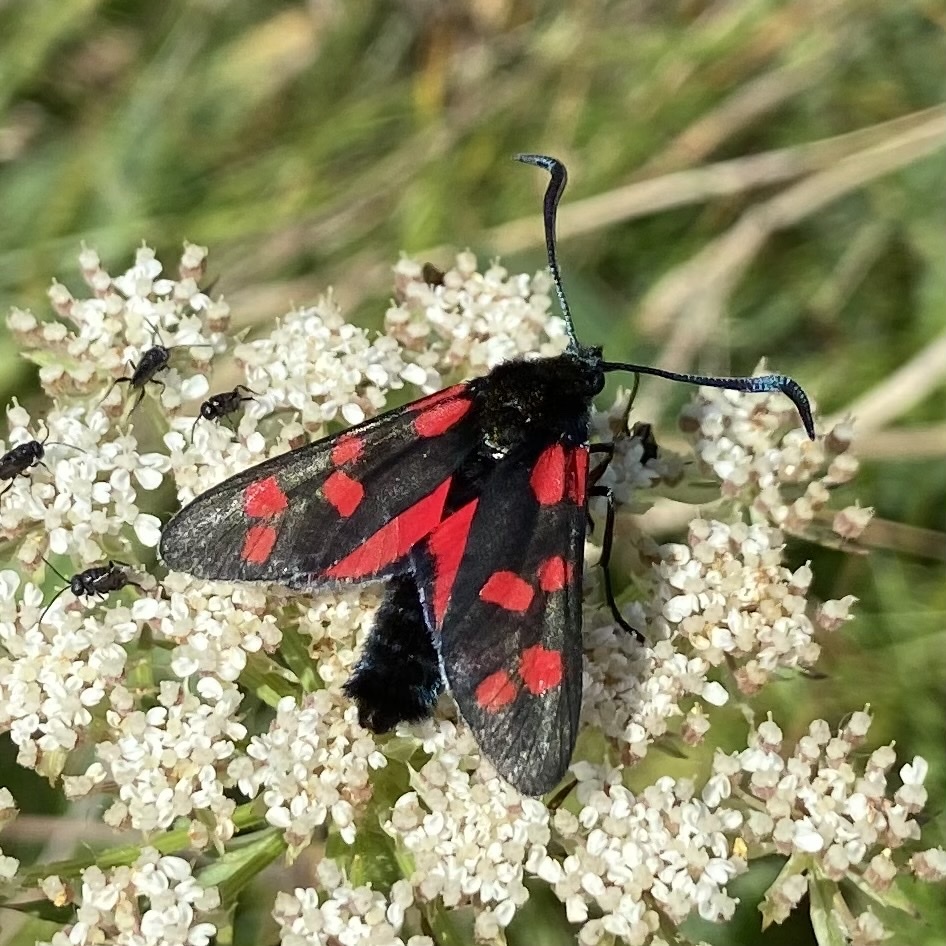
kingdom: Animalia
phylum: Arthropoda
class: Insecta
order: Lepidoptera
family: Zygaenidae
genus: Zygaena
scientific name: Zygaena filipendulae
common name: Six-spot burnet
